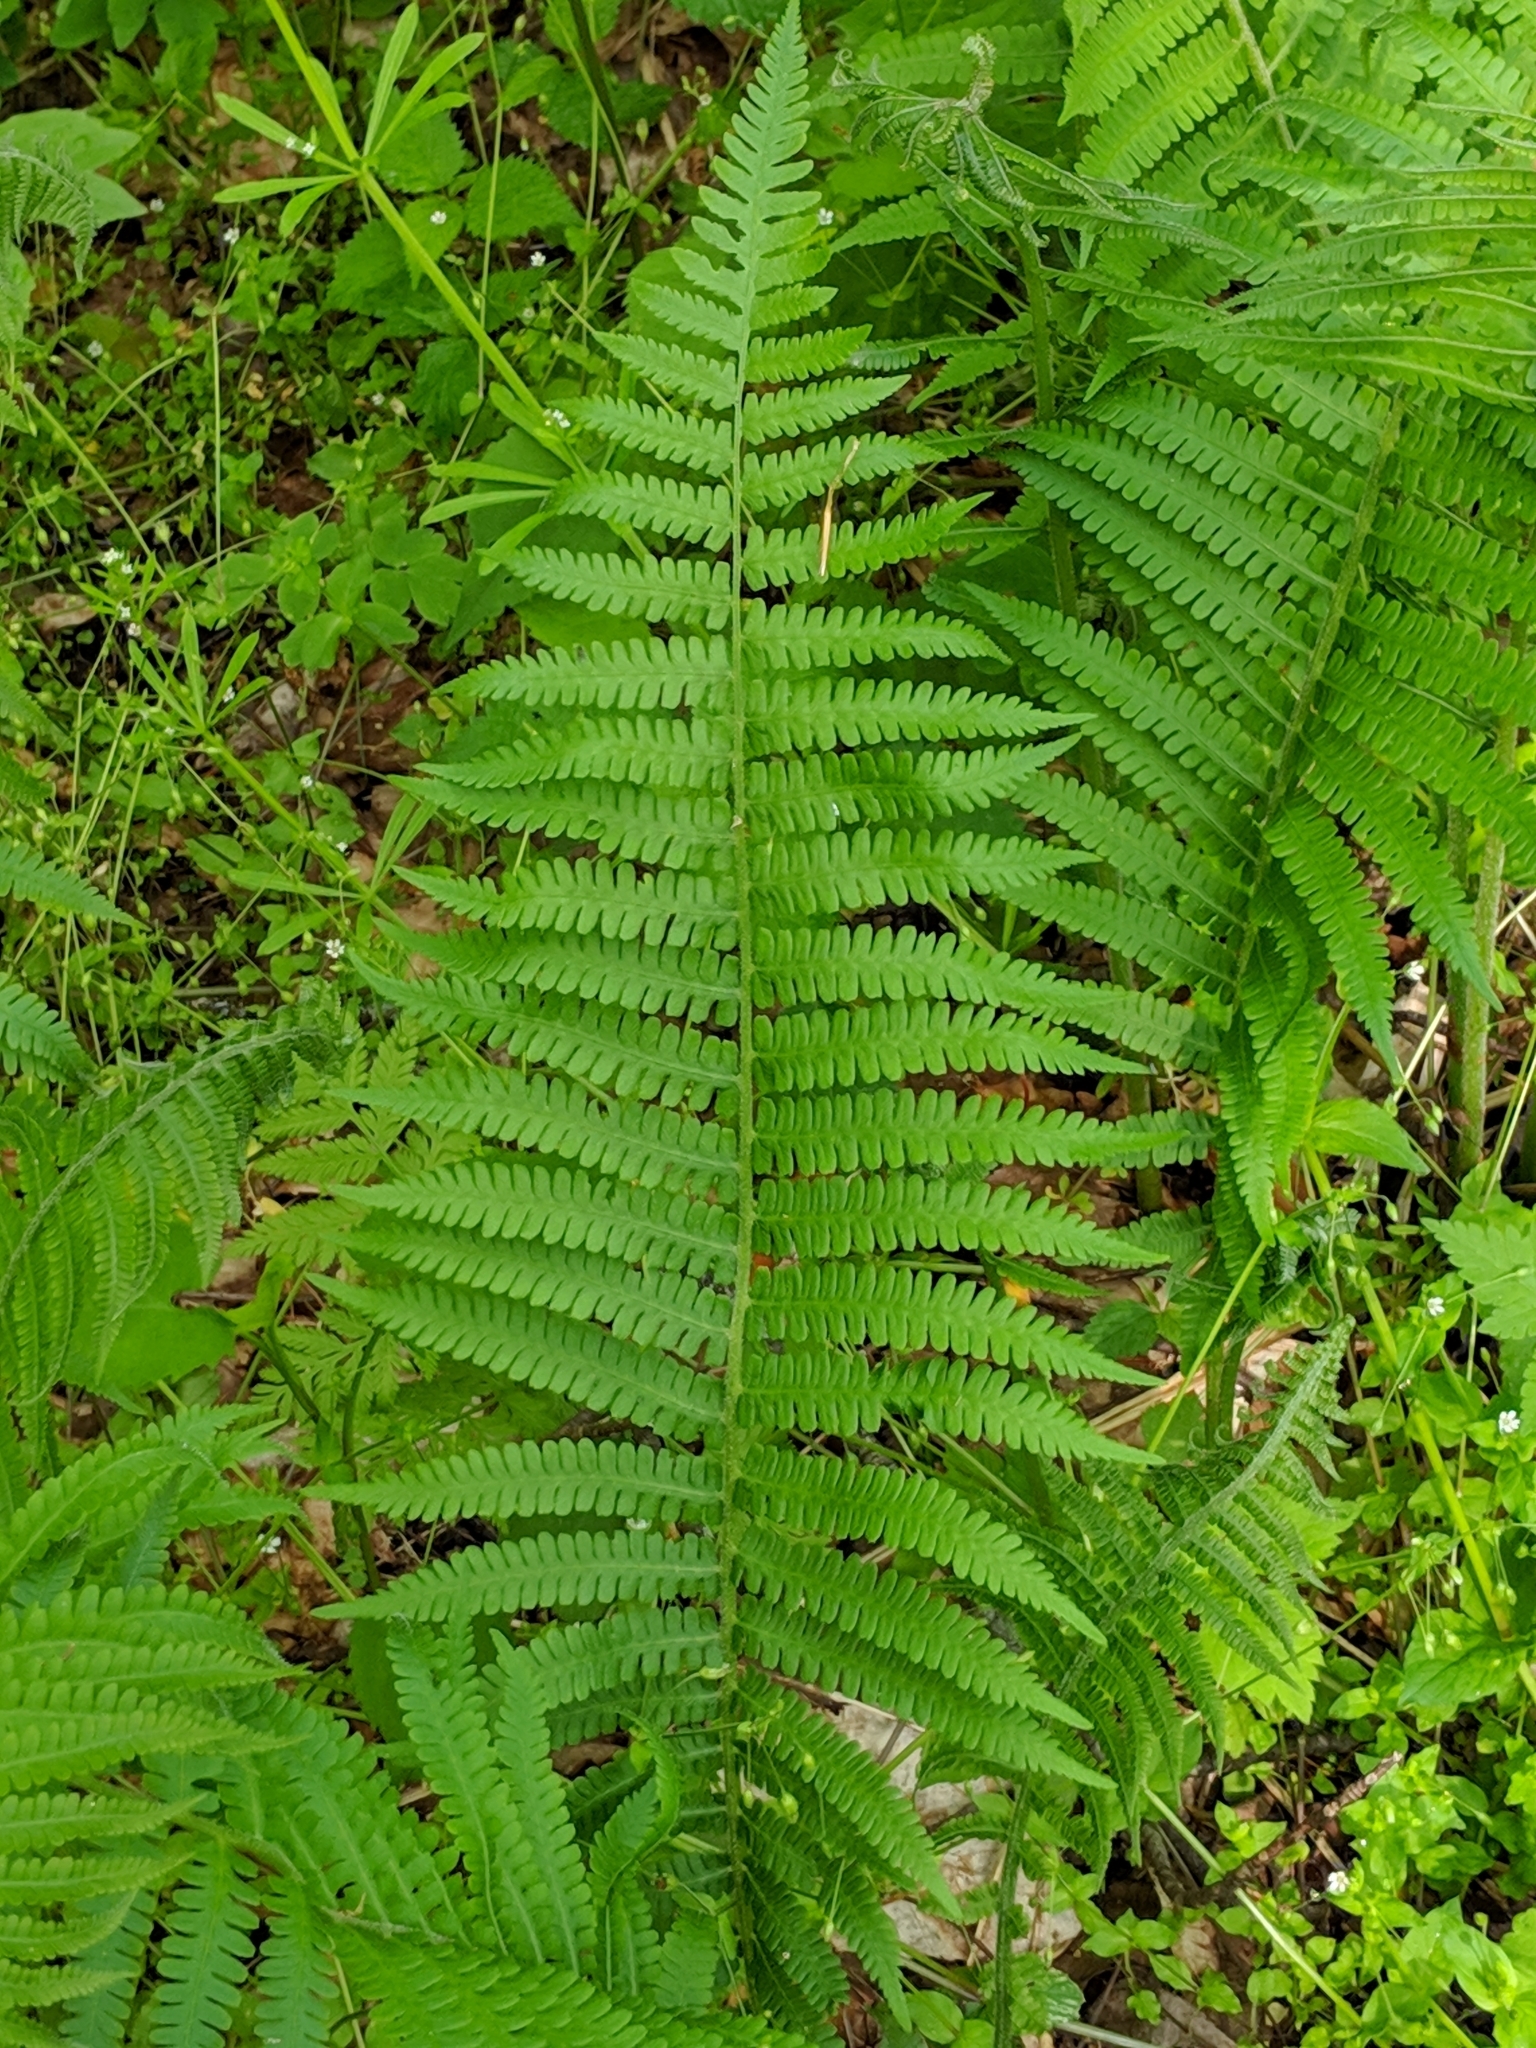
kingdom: Plantae
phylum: Tracheophyta
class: Polypodiopsida
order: Polypodiales
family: Thelypteridaceae
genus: Amauropelta
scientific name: Amauropelta noveboracensis
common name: New york fern
